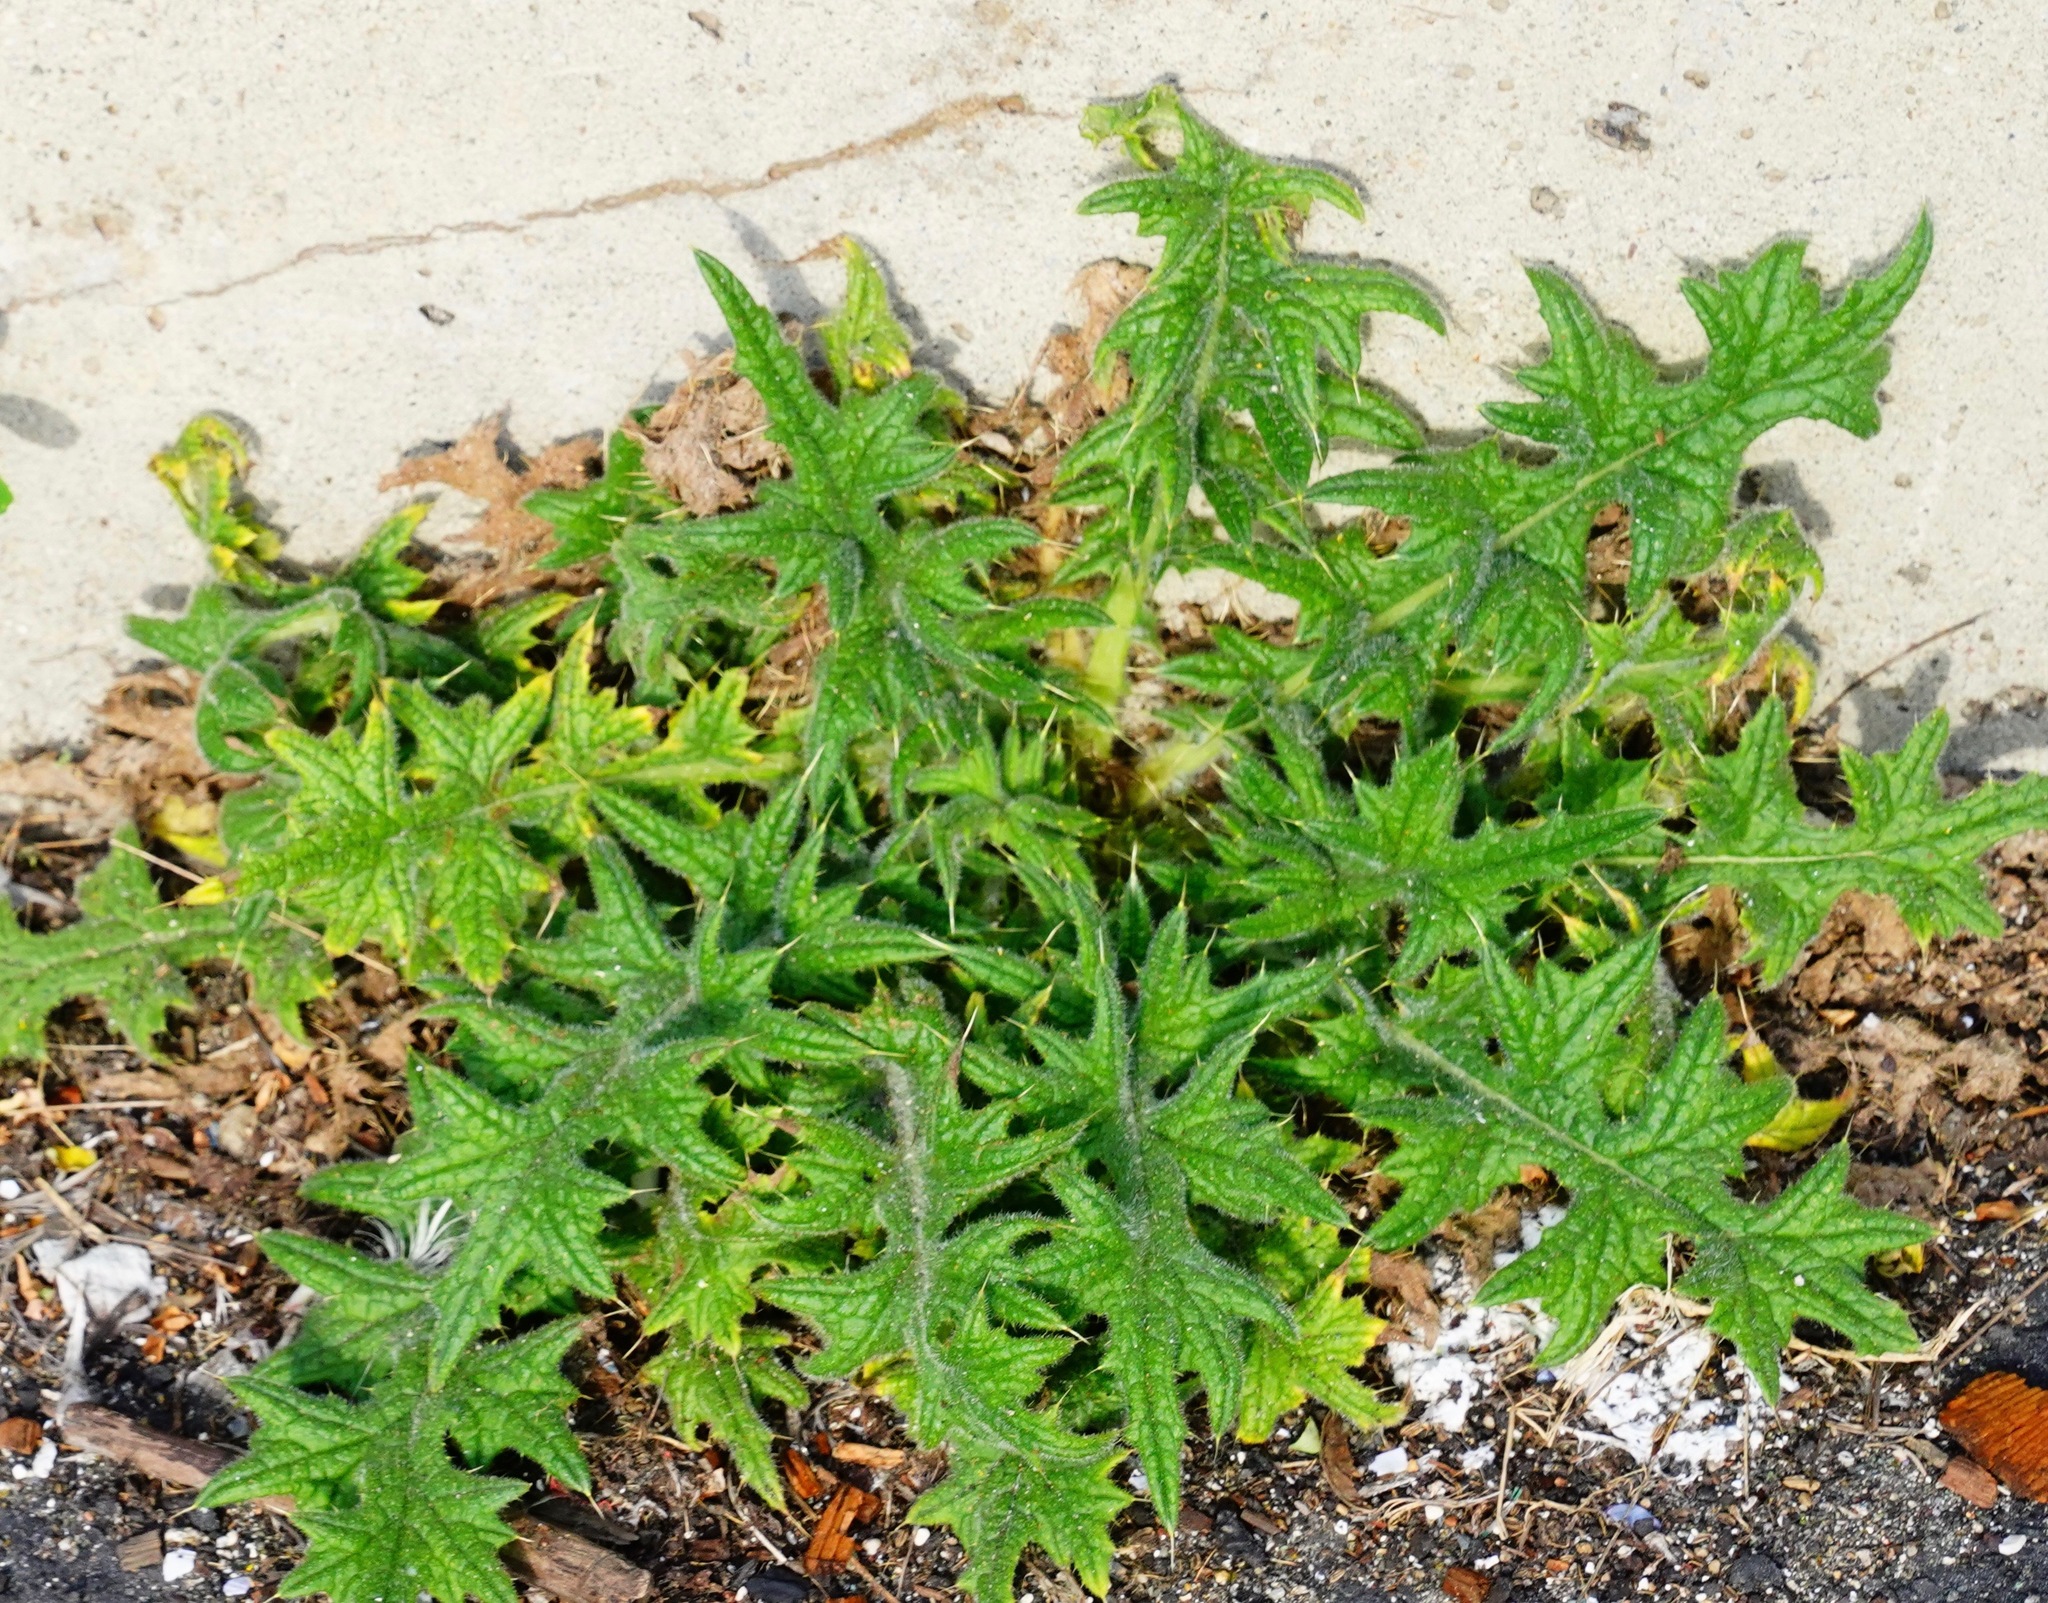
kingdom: Plantae
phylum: Tracheophyta
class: Magnoliopsida
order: Asterales
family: Asteraceae
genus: Cirsium
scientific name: Cirsium vulgare
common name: Bull thistle
